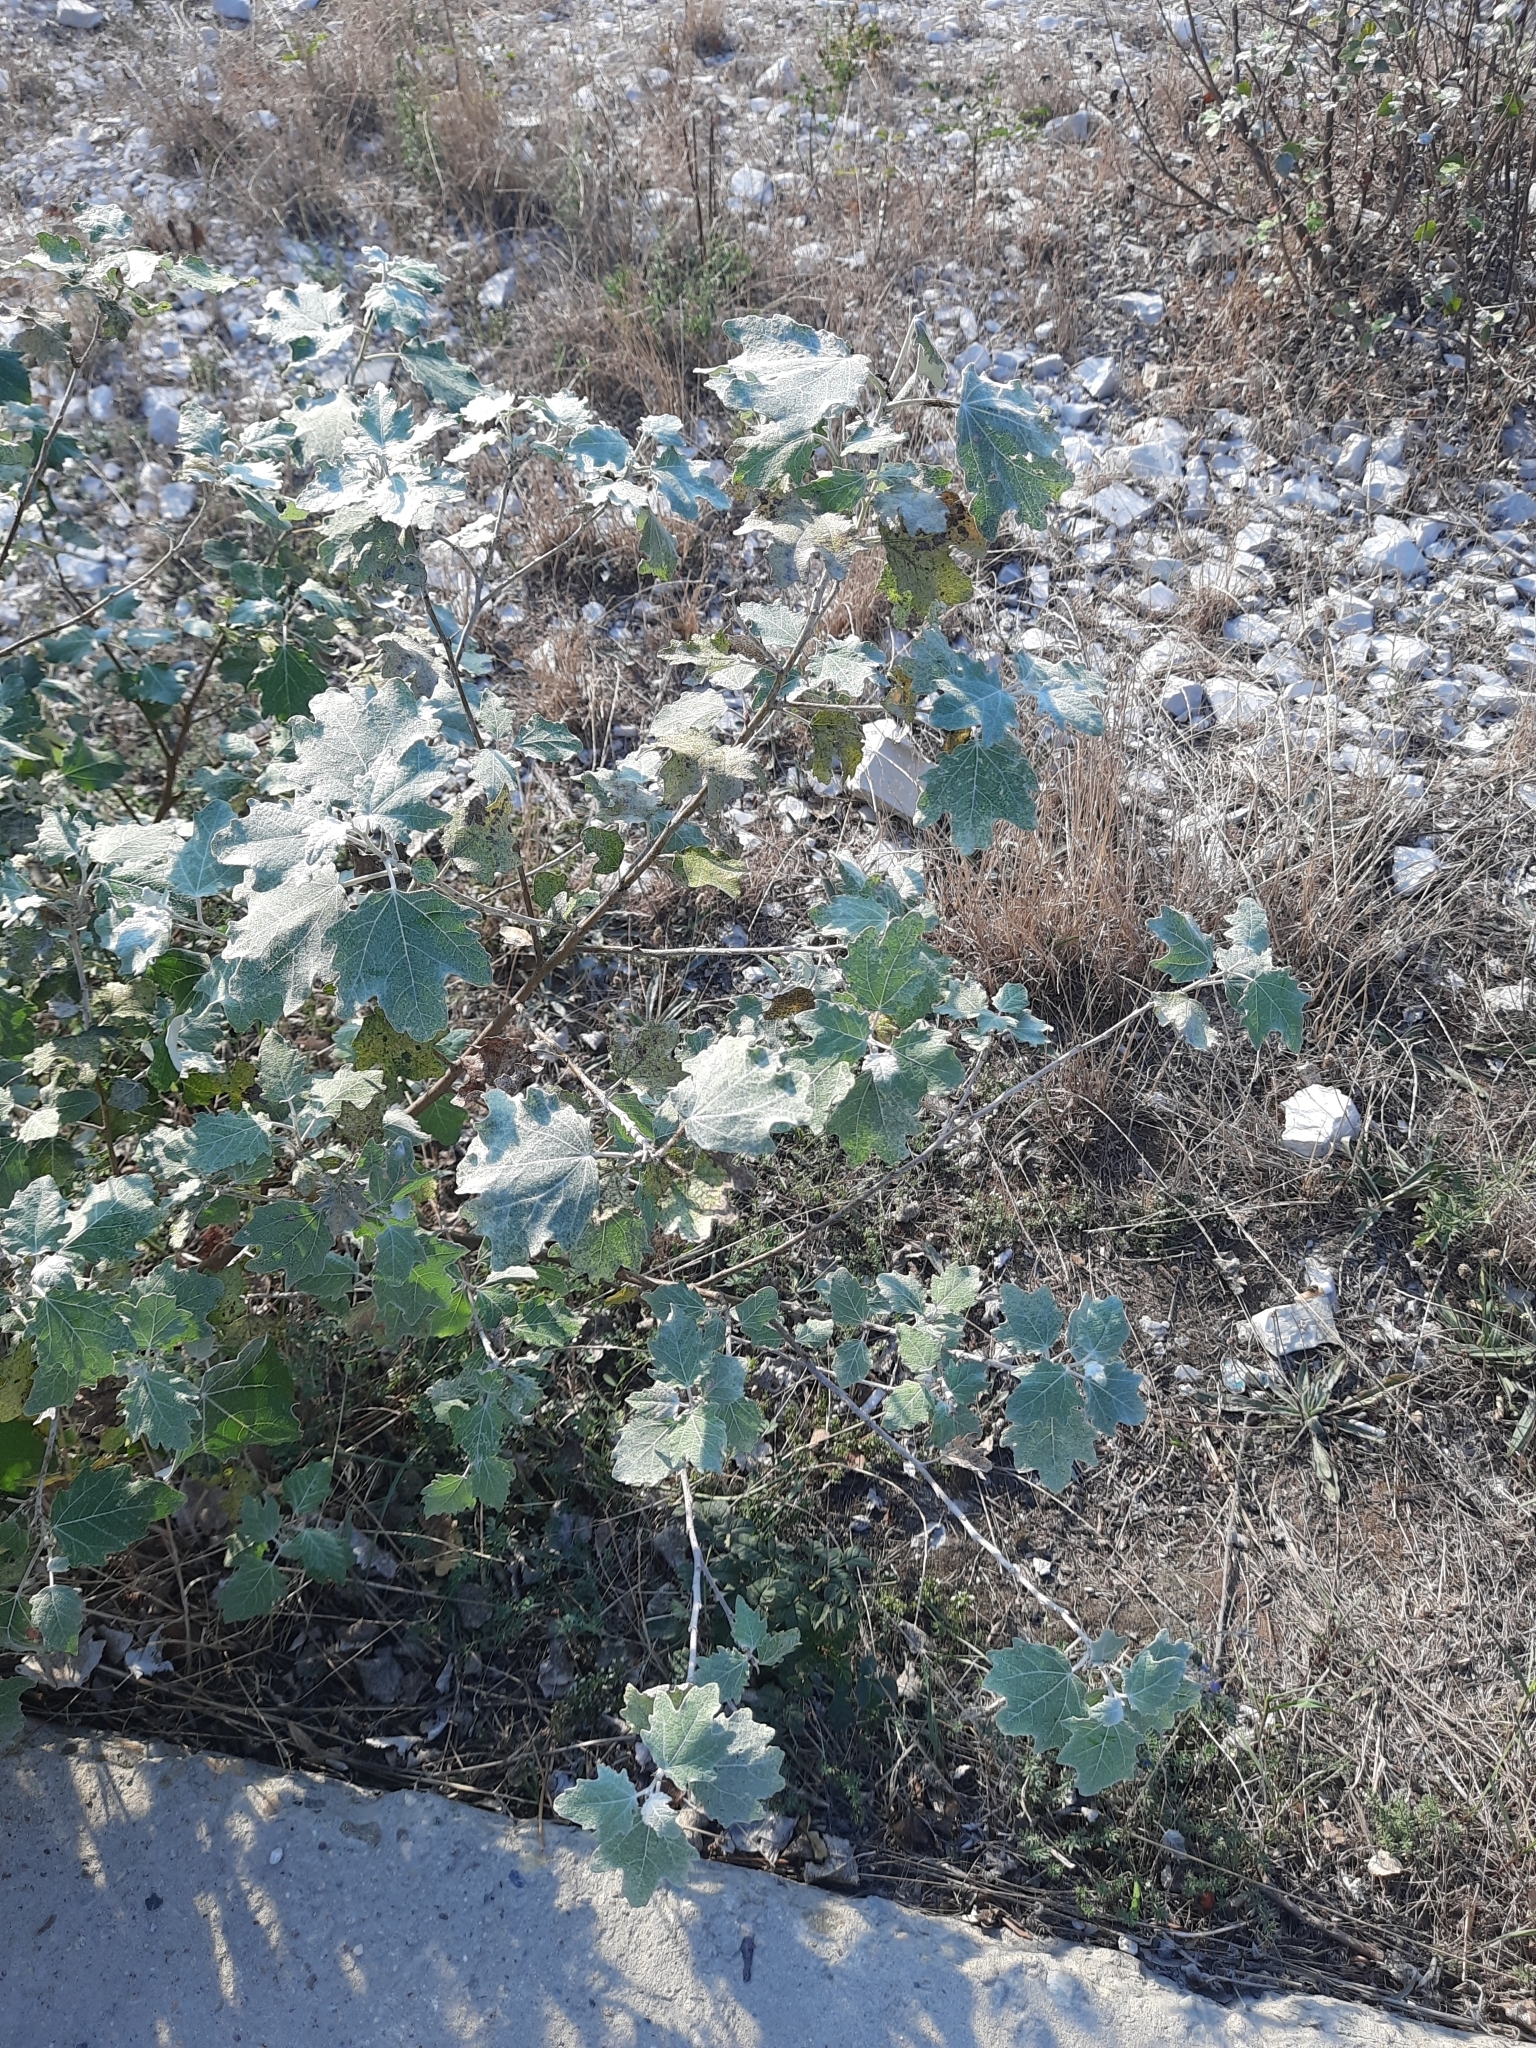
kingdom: Plantae
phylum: Tracheophyta
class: Magnoliopsida
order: Malpighiales
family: Salicaceae
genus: Populus
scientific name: Populus alba
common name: White poplar
